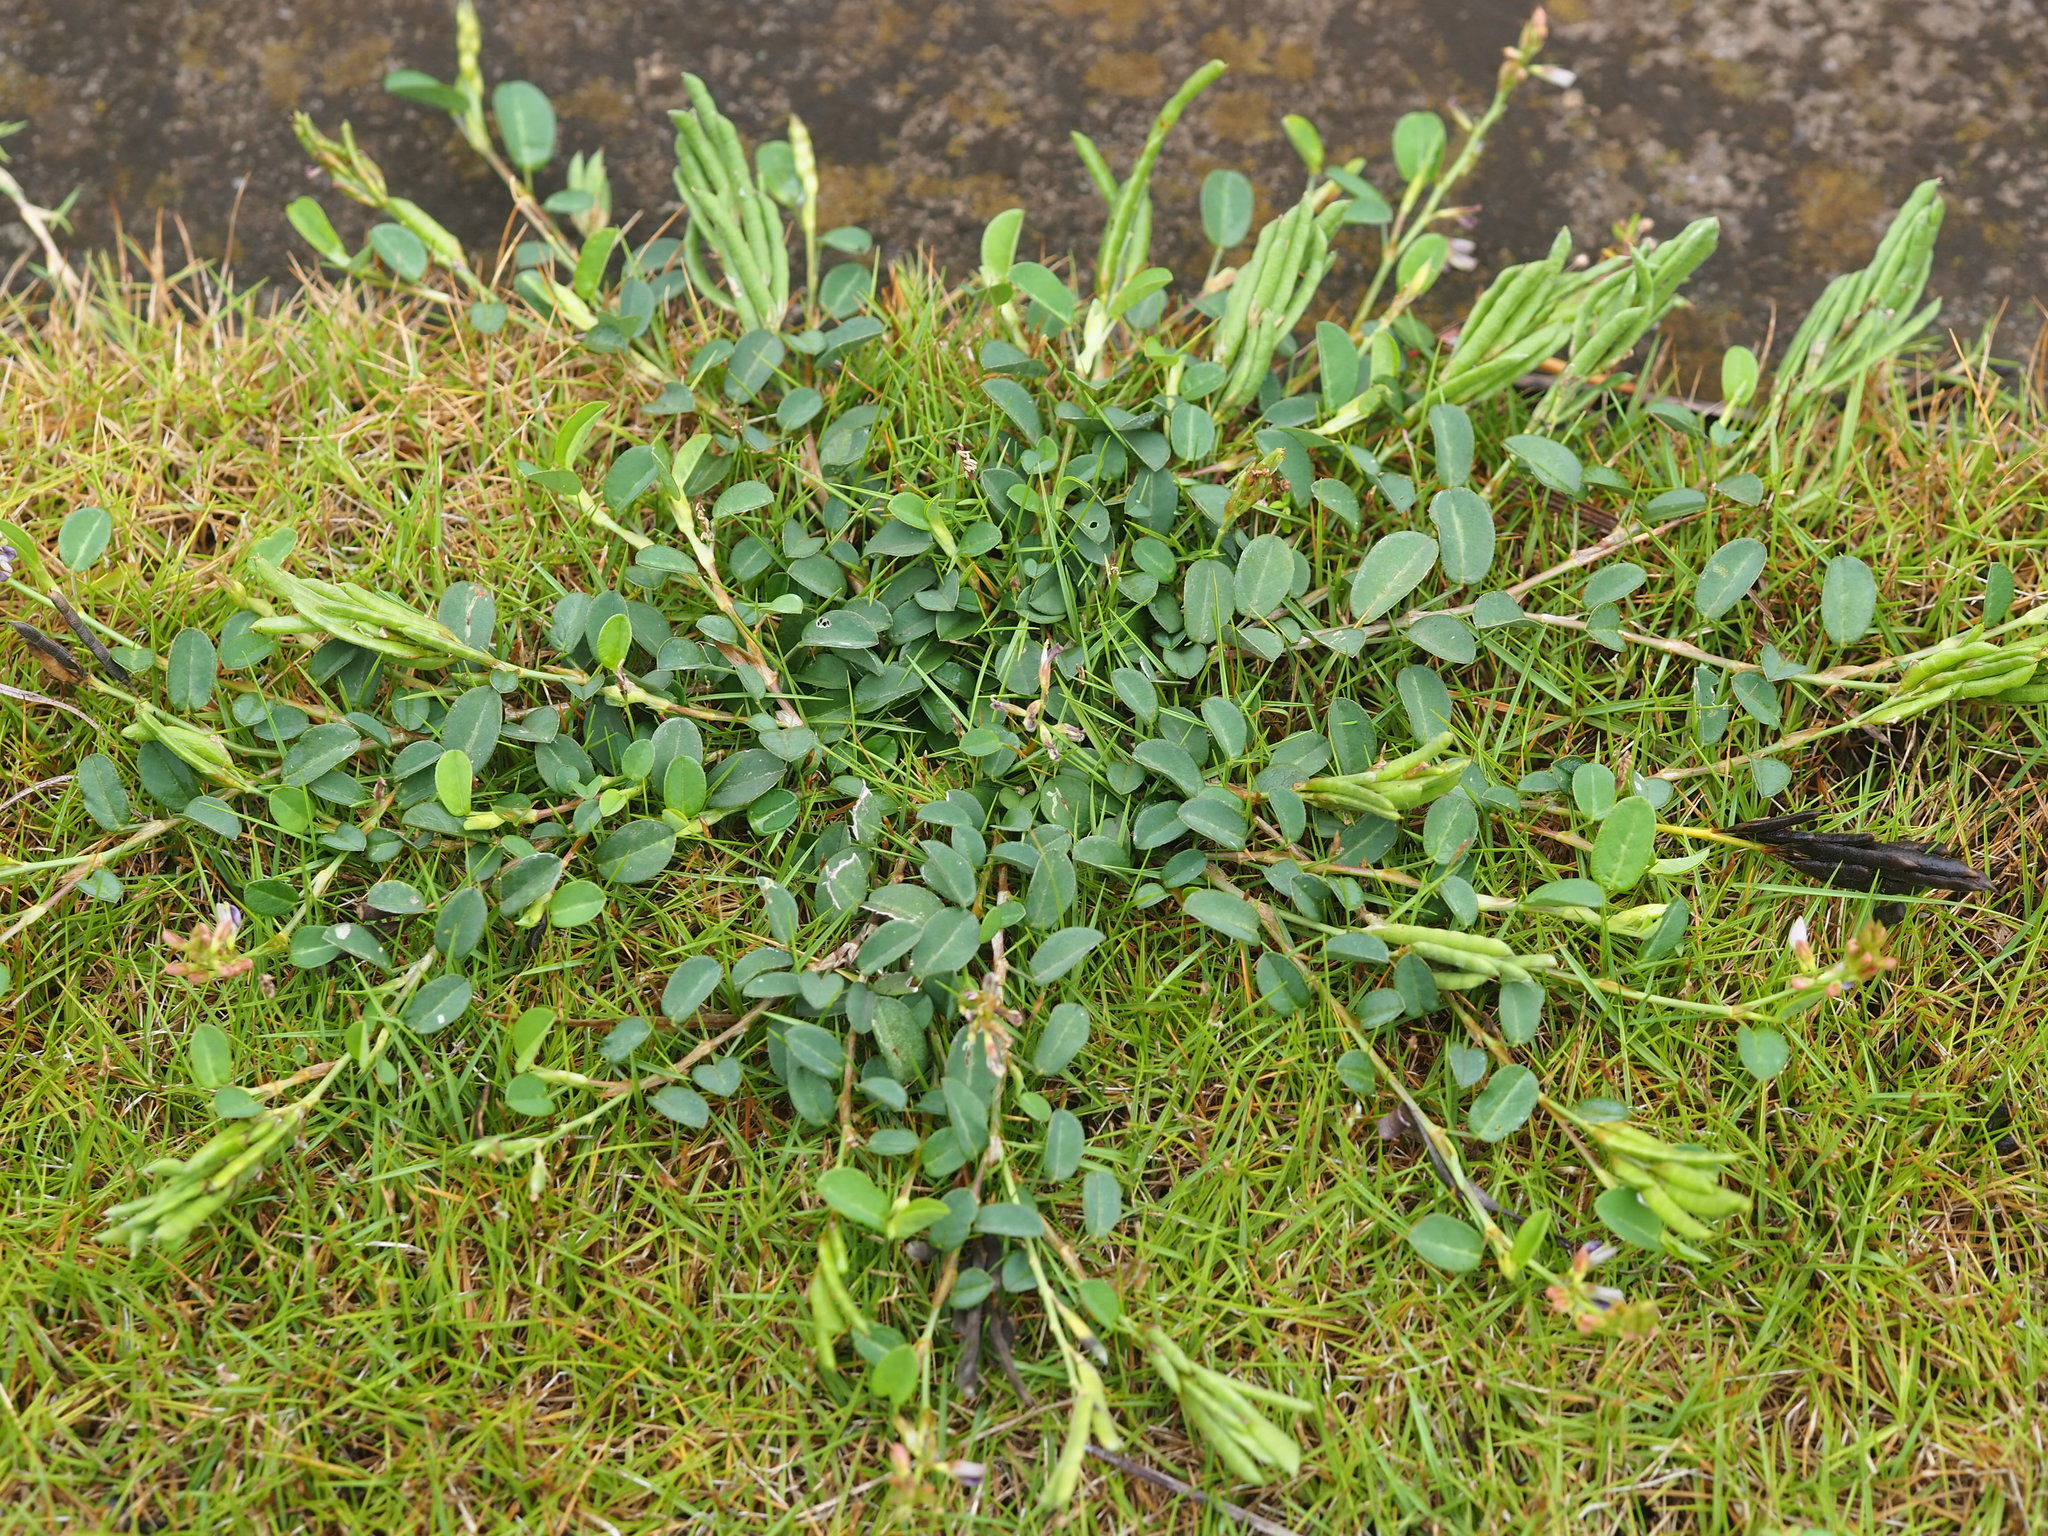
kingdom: Plantae
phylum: Tracheophyta
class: Magnoliopsida
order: Fabales
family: Fabaceae
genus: Alysicarpus
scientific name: Alysicarpus vaginalis
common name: White moneywort
